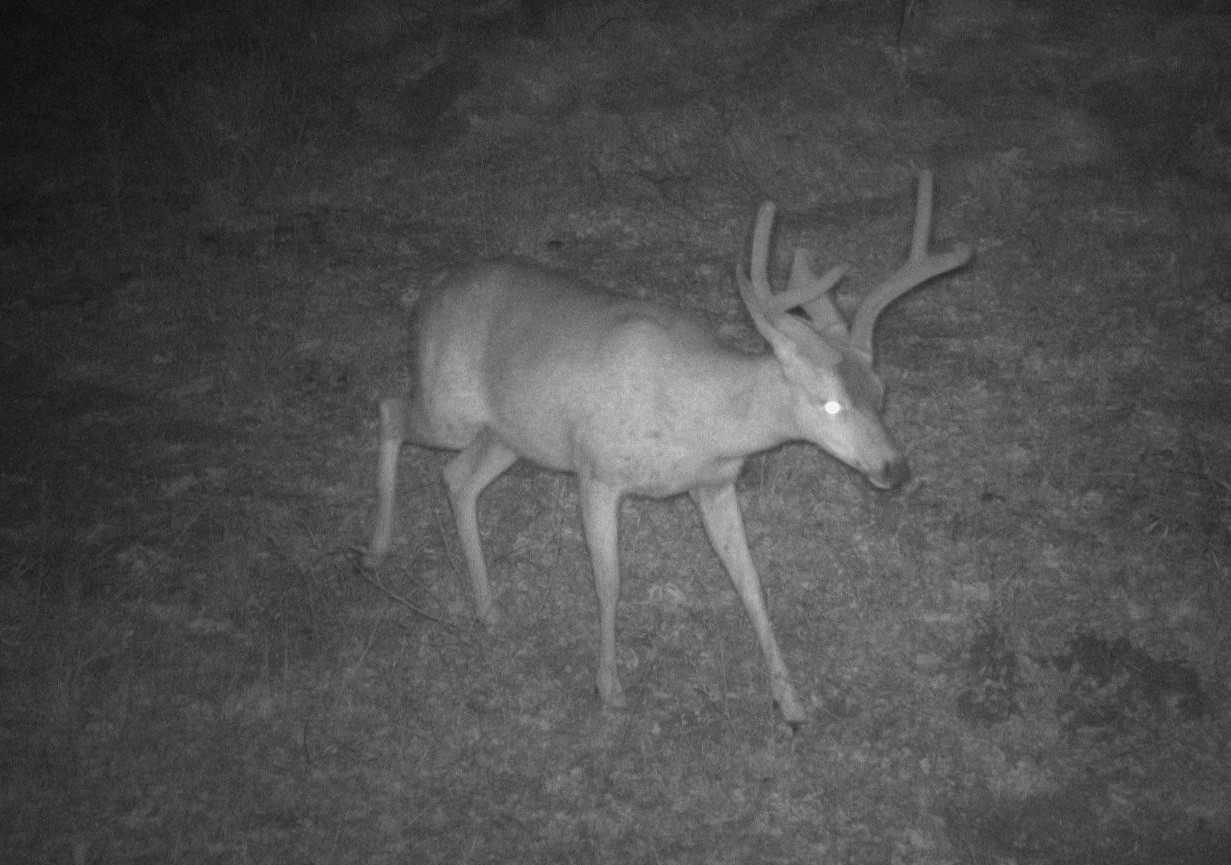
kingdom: Animalia
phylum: Chordata
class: Mammalia
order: Artiodactyla
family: Cervidae
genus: Odocoileus
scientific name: Odocoileus hemionus
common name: Mule deer
